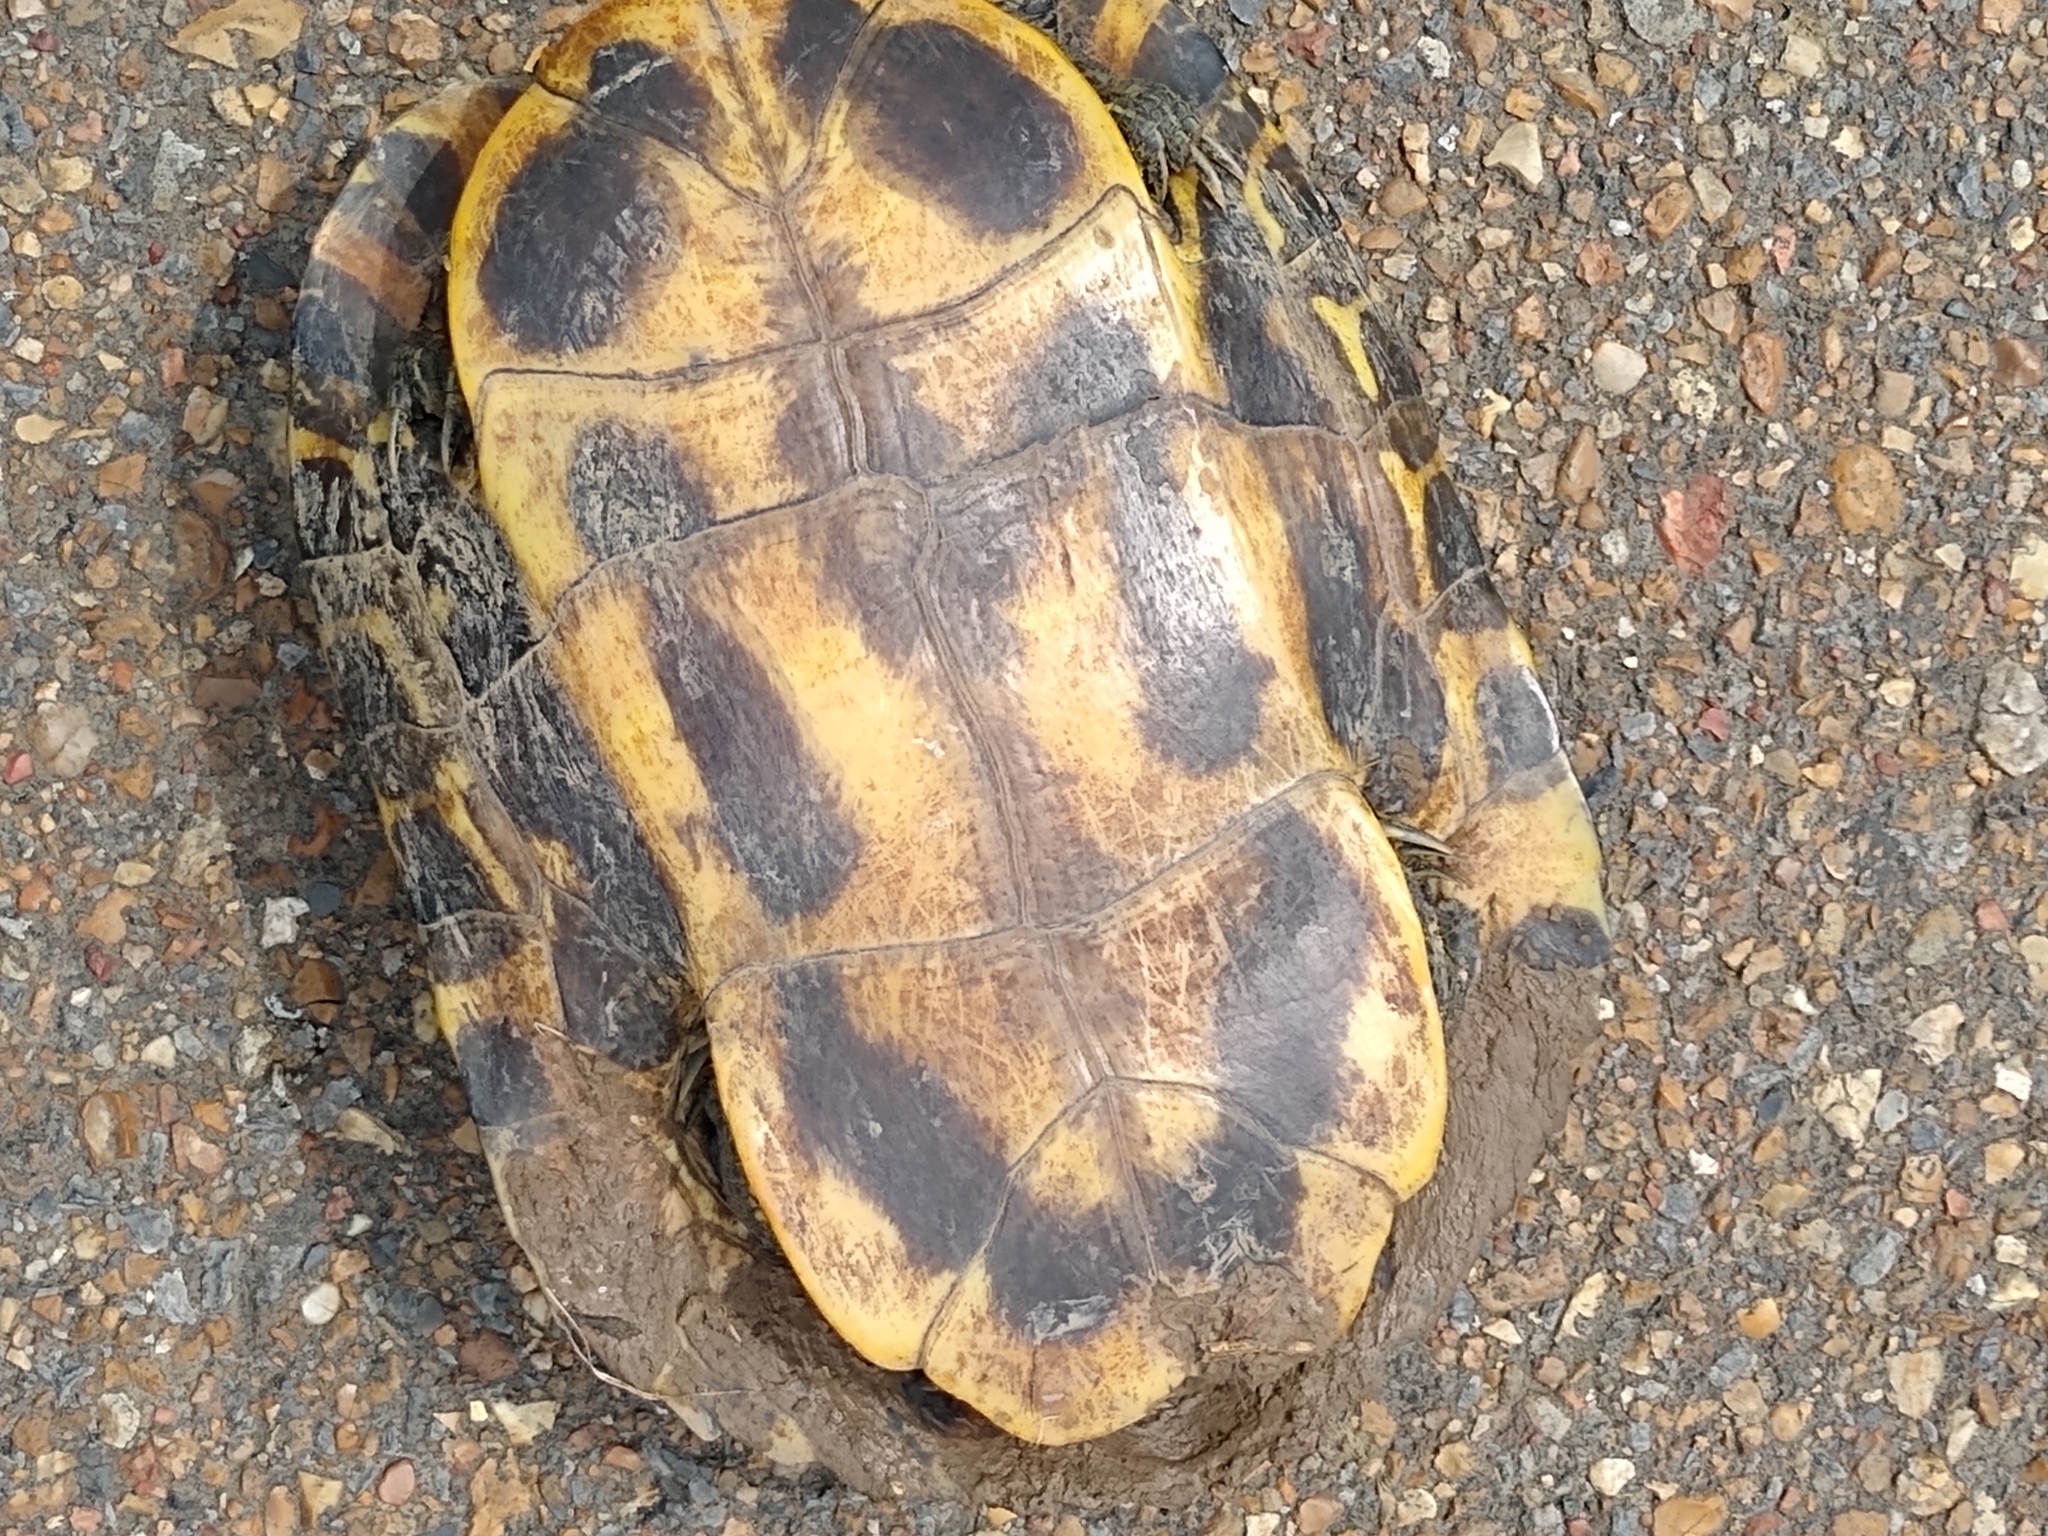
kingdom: Animalia
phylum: Chordata
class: Testudines
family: Emydidae
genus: Trachemys
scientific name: Trachemys scripta
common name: Slider
